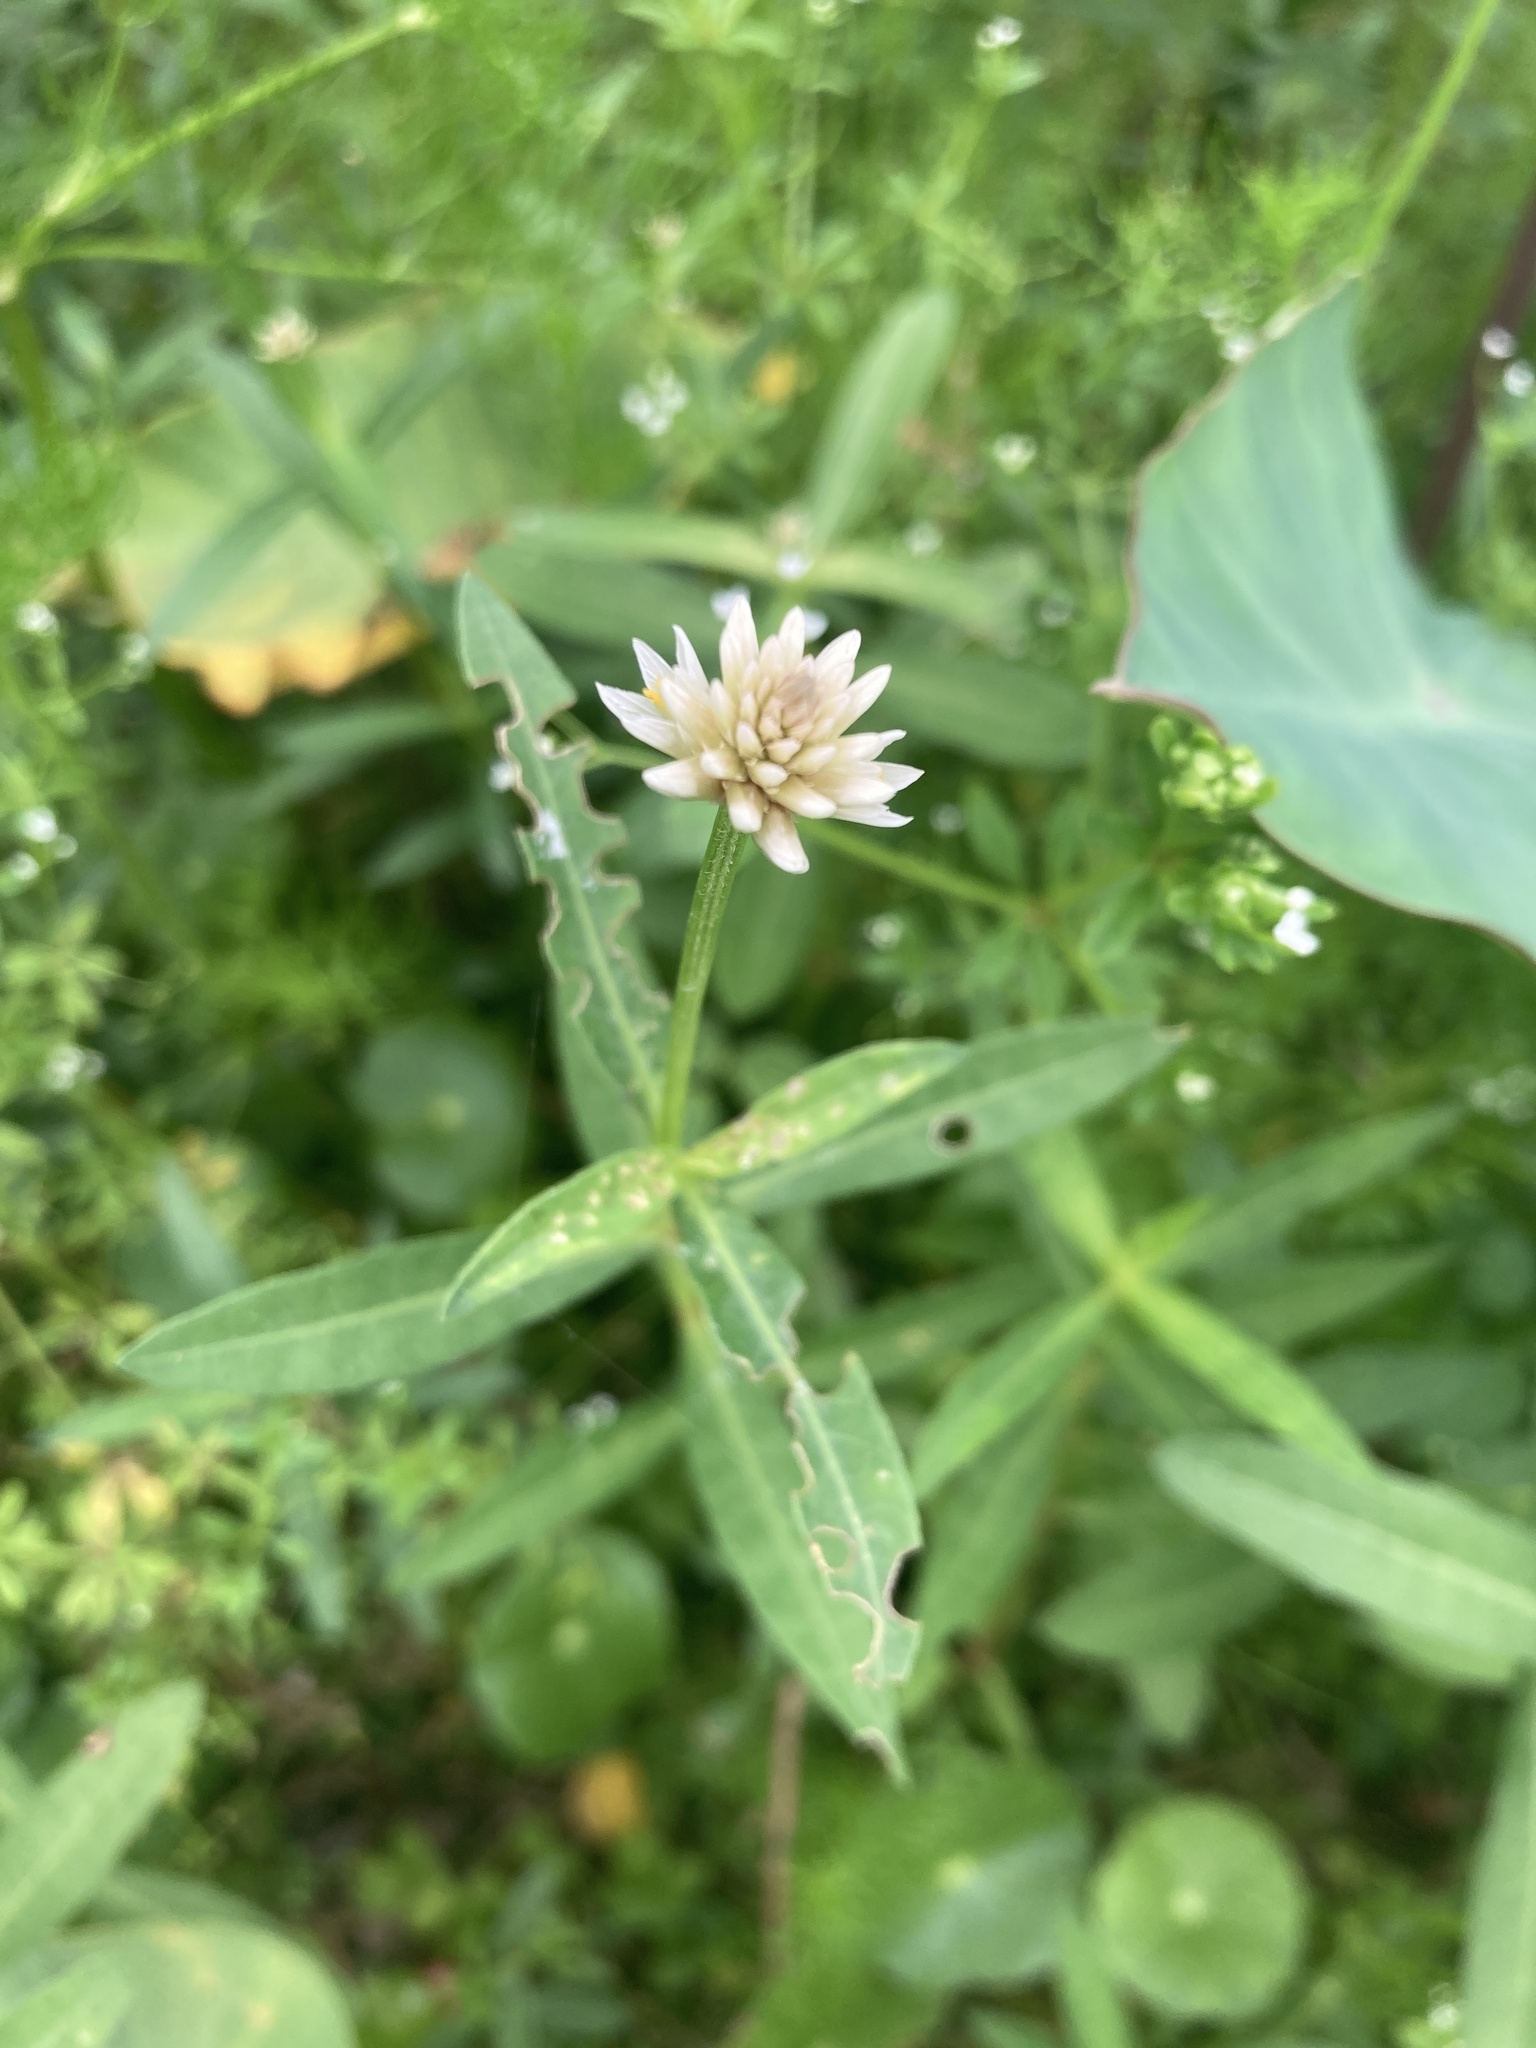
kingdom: Plantae
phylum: Tracheophyta
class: Magnoliopsida
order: Caryophyllales
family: Amaranthaceae
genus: Alternanthera
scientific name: Alternanthera philoxeroides
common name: Alligatorweed
